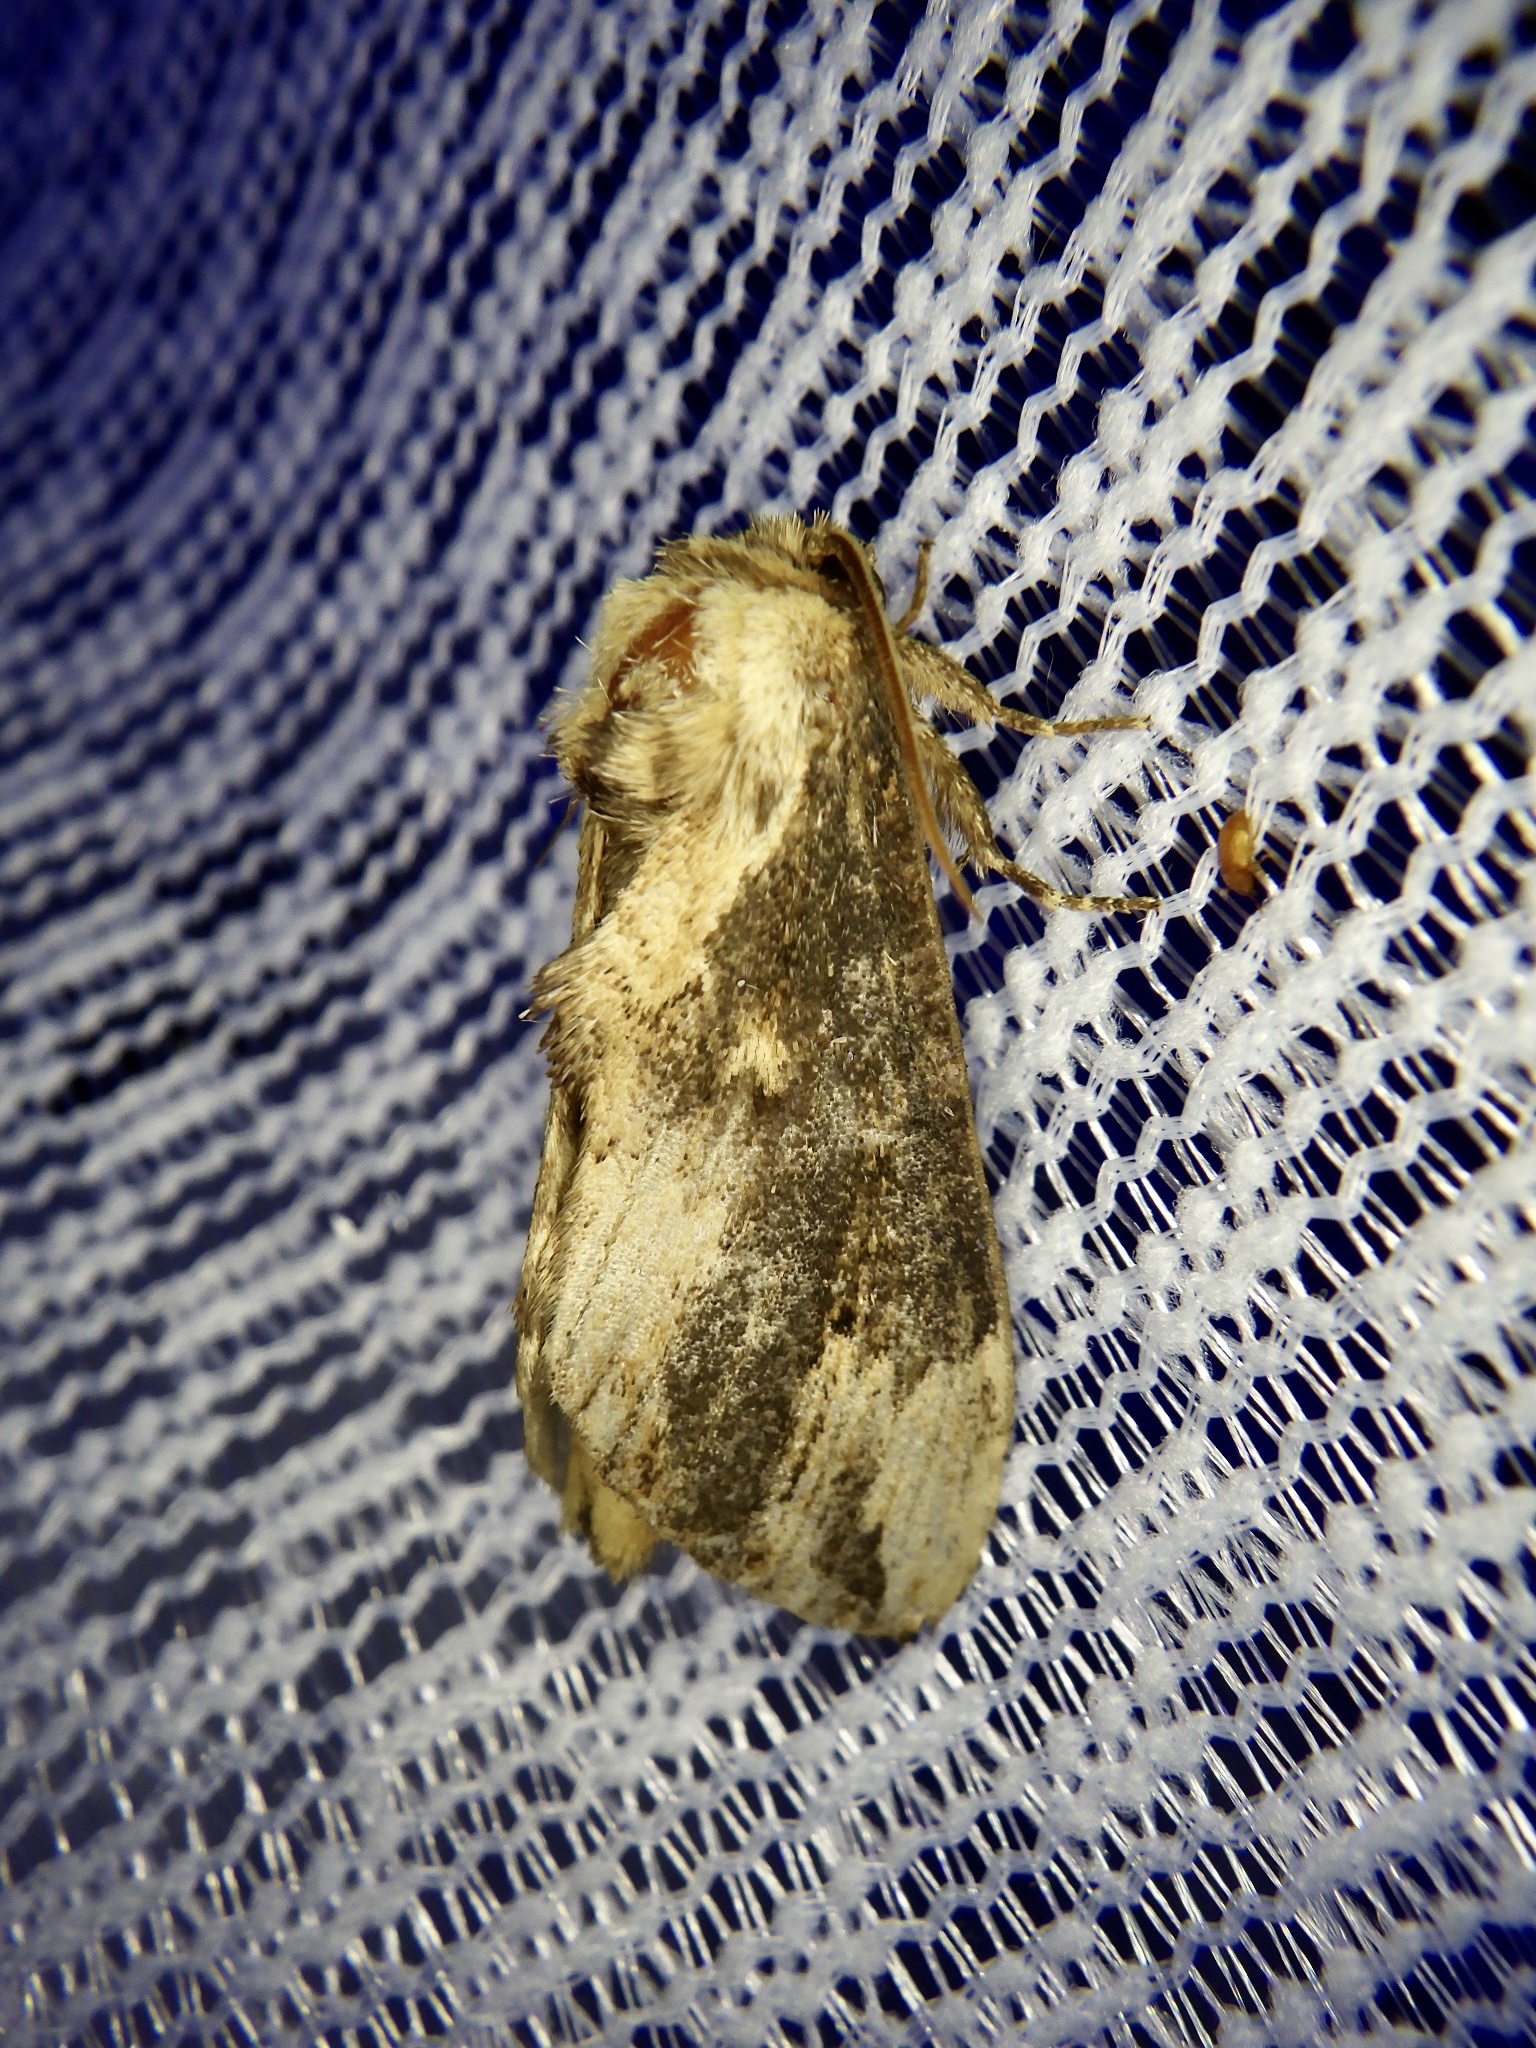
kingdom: Animalia
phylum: Arthropoda
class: Insecta
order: Lepidoptera
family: Notodontidae
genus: Hiradonta
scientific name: Hiradonta takaonis
